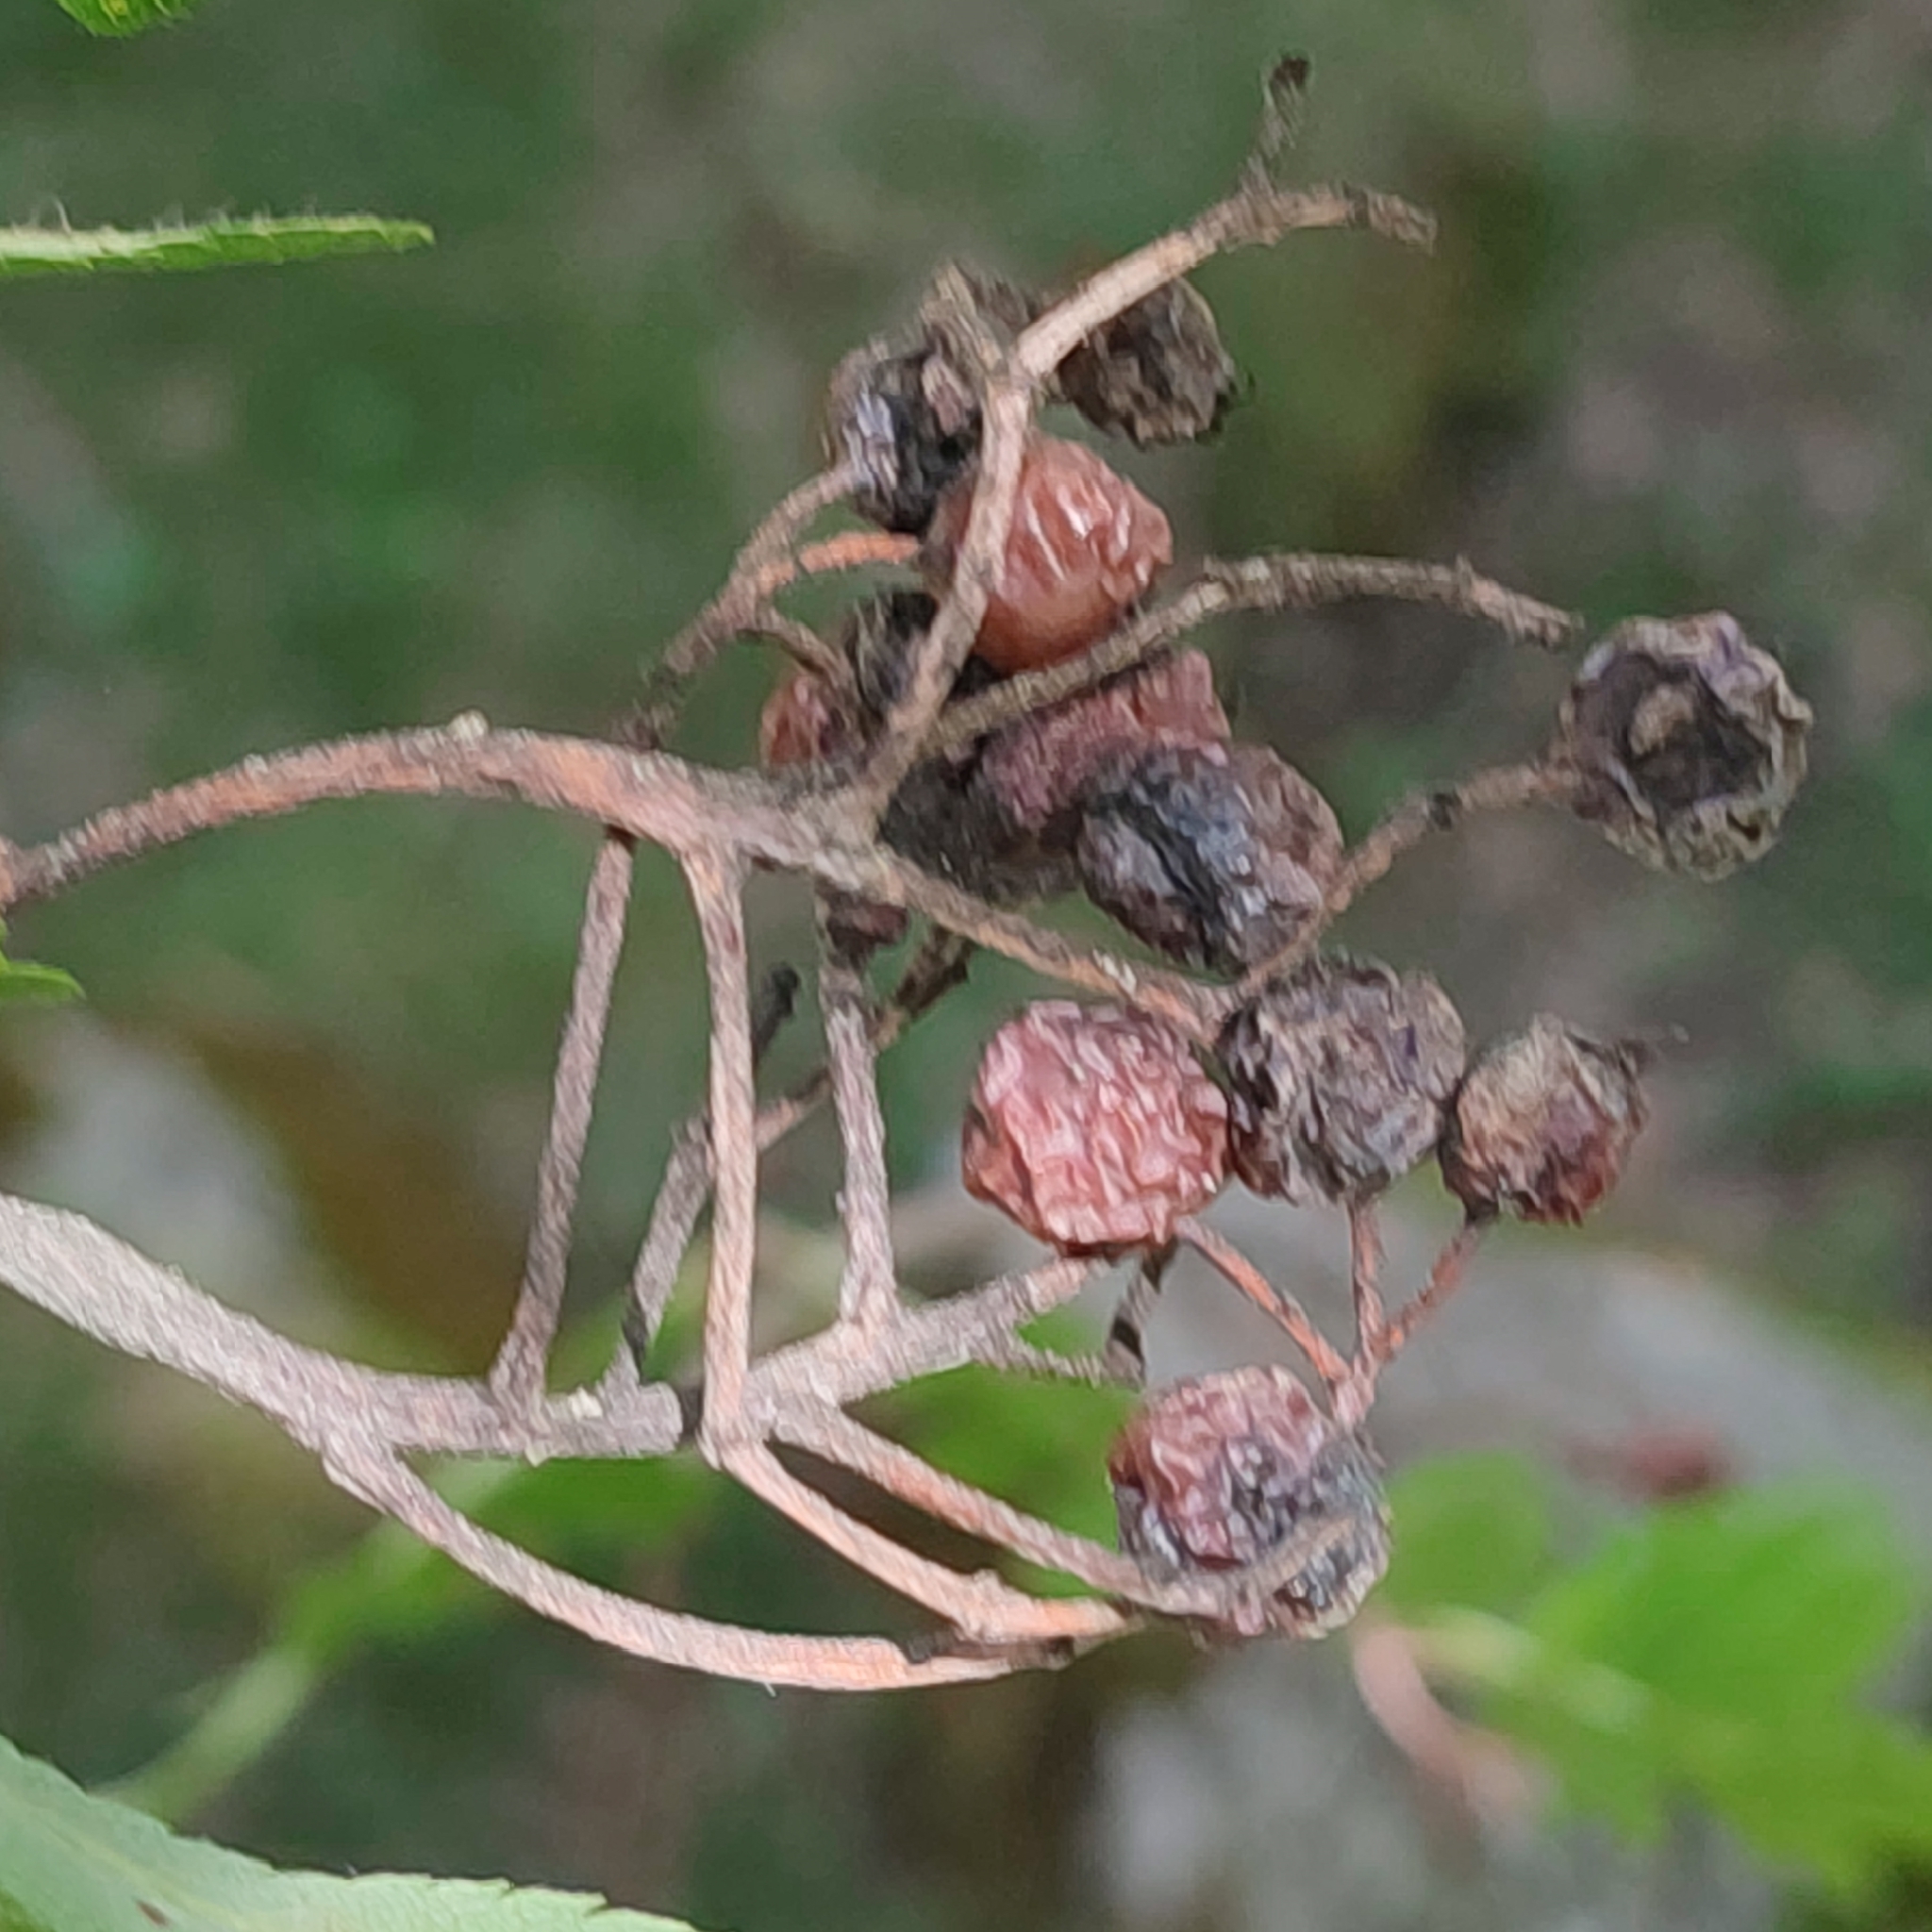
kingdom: Plantae
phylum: Tracheophyta
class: Magnoliopsida
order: Rosales
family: Rosaceae
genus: Sorbus
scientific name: Sorbus aucuparia
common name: Rowan
